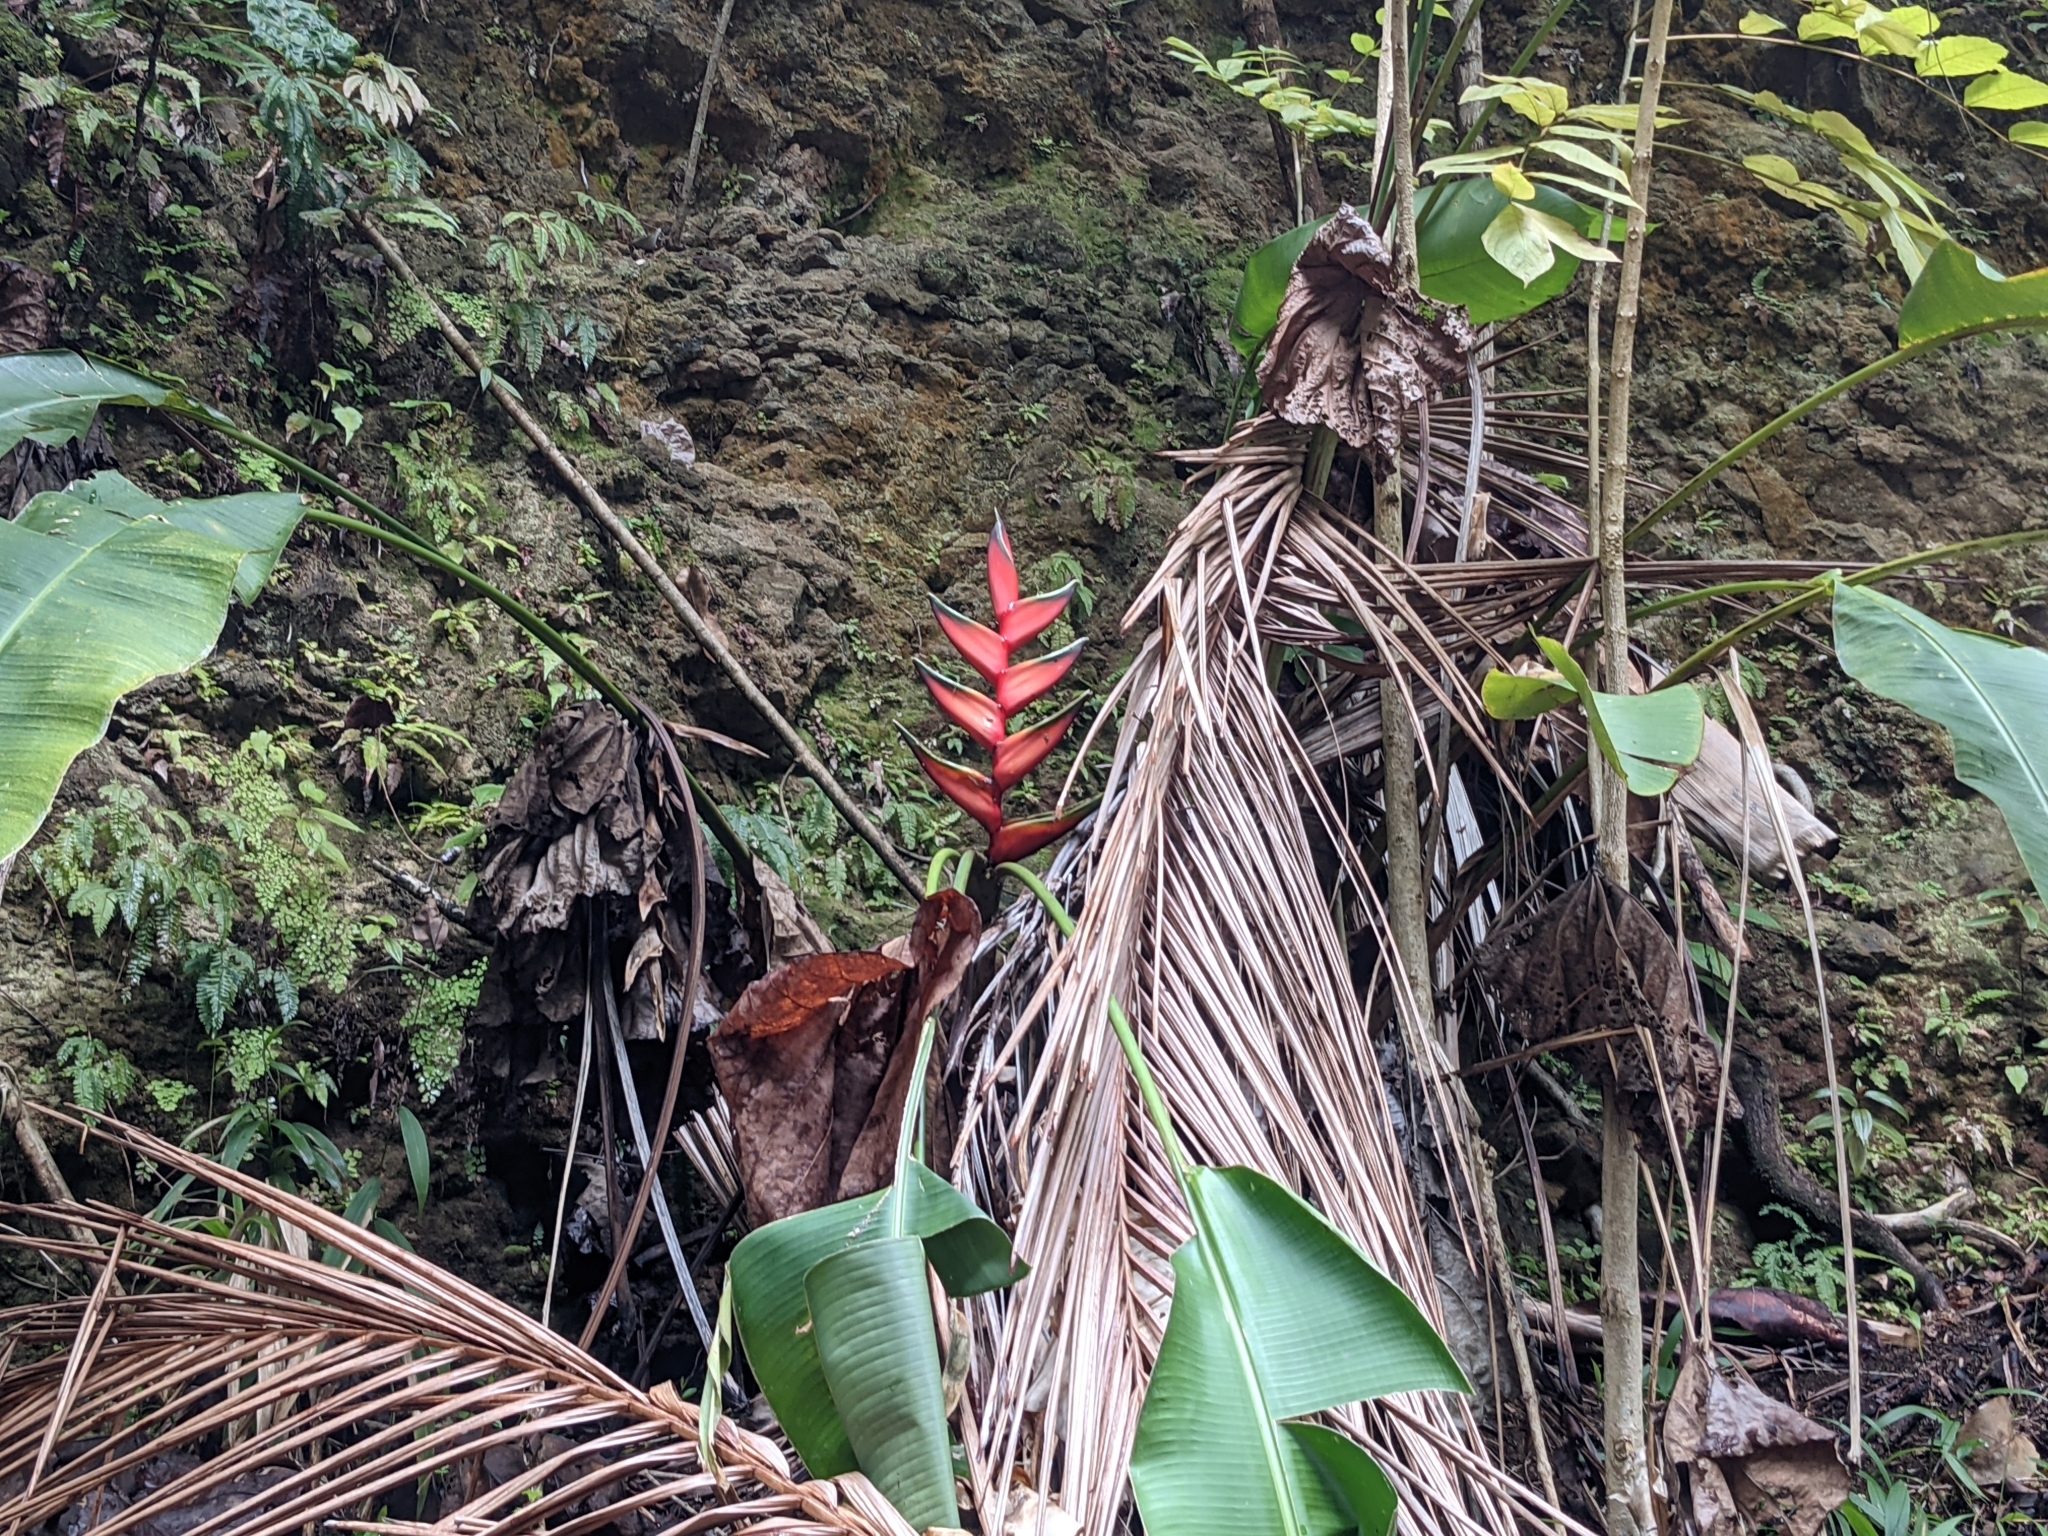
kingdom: Plantae
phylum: Tracheophyta
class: Liliopsida
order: Zingiberales
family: Heliconiaceae
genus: Heliconia
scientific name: Heliconia bihai
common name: Macaw flower
